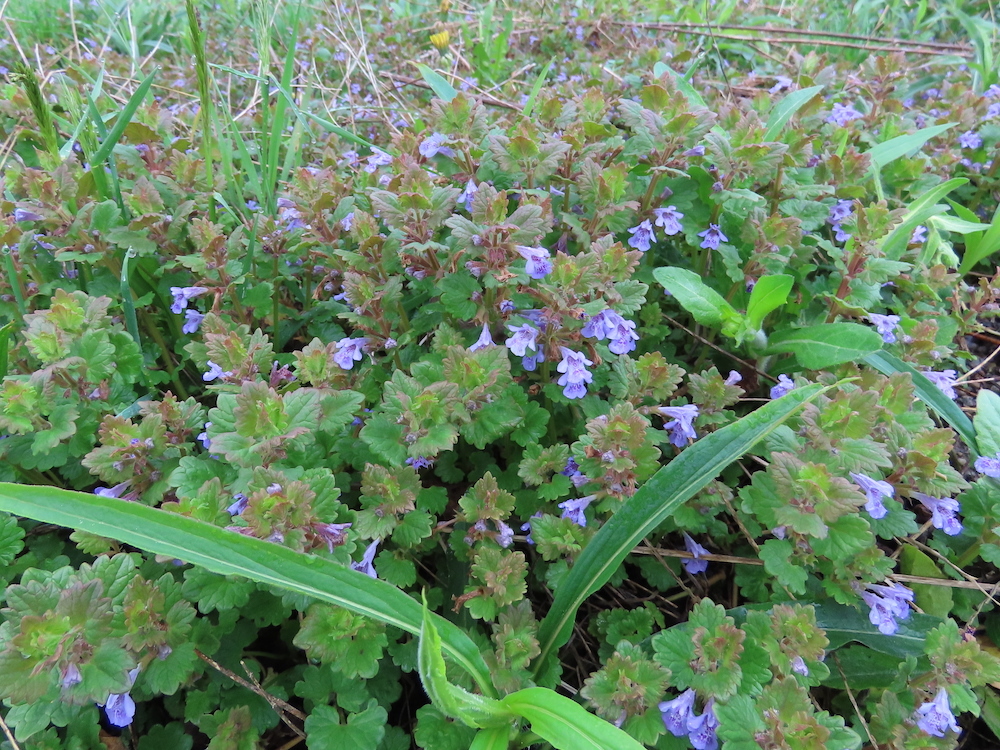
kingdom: Plantae
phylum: Tracheophyta
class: Magnoliopsida
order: Lamiales
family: Lamiaceae
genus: Glechoma
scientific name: Glechoma hederacea
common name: Ground ivy
